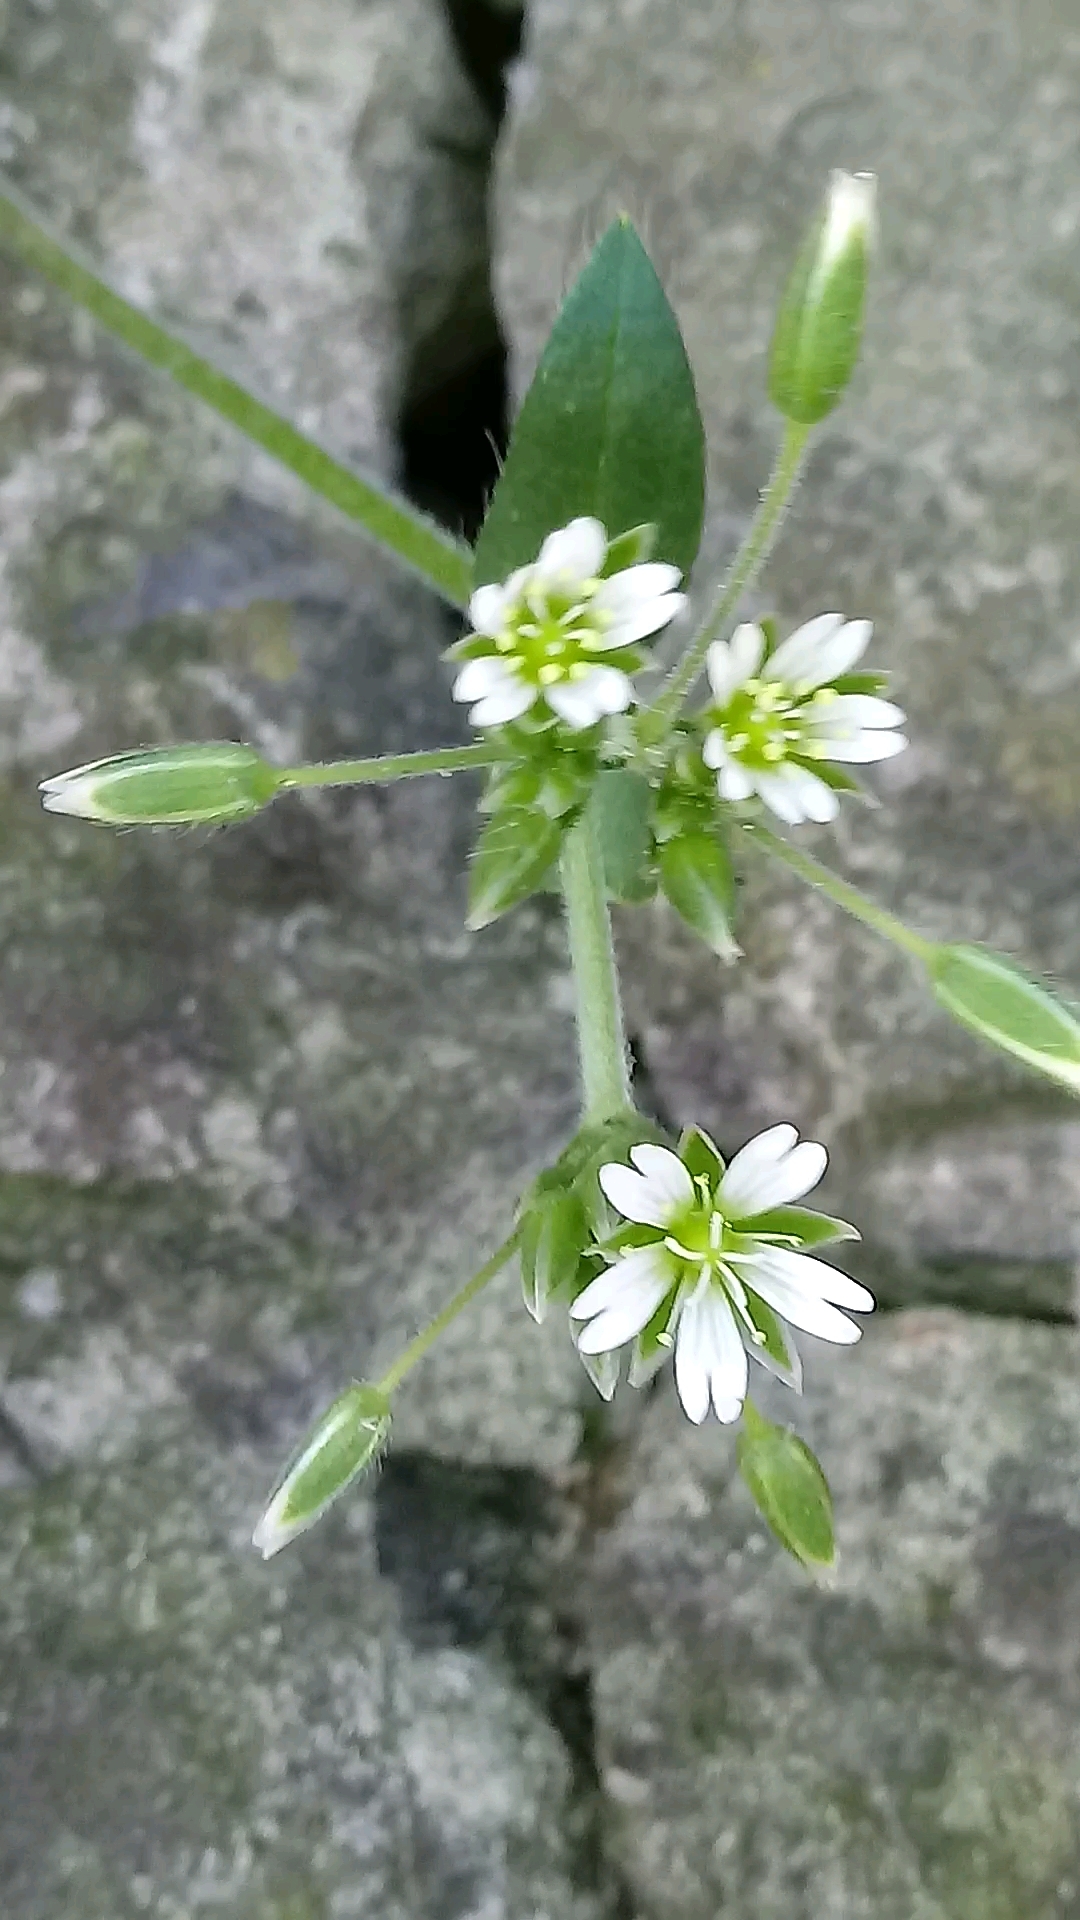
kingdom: Plantae
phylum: Tracheophyta
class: Magnoliopsida
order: Caryophyllales
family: Caryophyllaceae
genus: Cerastium
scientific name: Cerastium holosteoides
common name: Big chickweed
